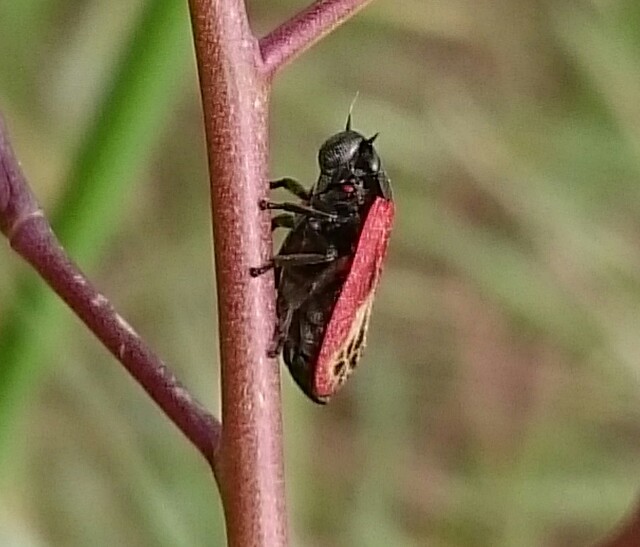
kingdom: Animalia
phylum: Arthropoda
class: Insecta
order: Hemiptera
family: Cercopidae
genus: Rhinaulax
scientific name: Rhinaulax analis
